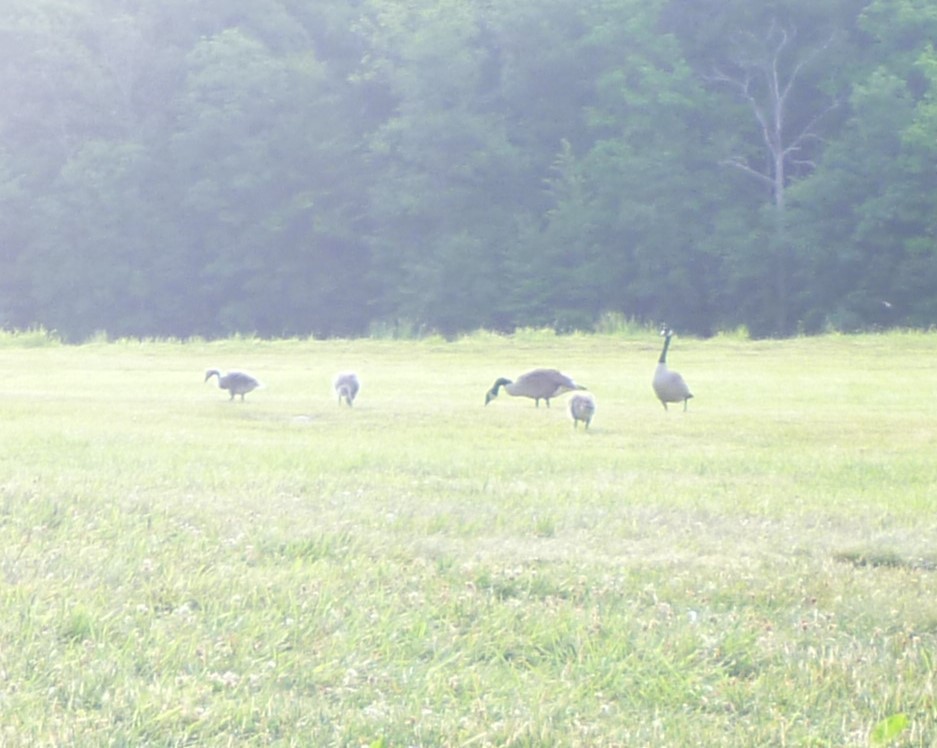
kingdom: Animalia
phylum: Chordata
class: Aves
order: Anseriformes
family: Anatidae
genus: Branta
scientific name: Branta canadensis
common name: Canada goose
